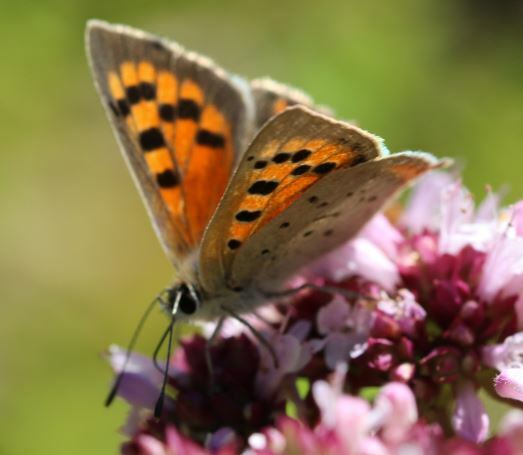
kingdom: Animalia
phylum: Arthropoda
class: Insecta
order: Lepidoptera
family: Lycaenidae
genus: Lycaena
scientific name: Lycaena phlaeas
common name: Small copper
